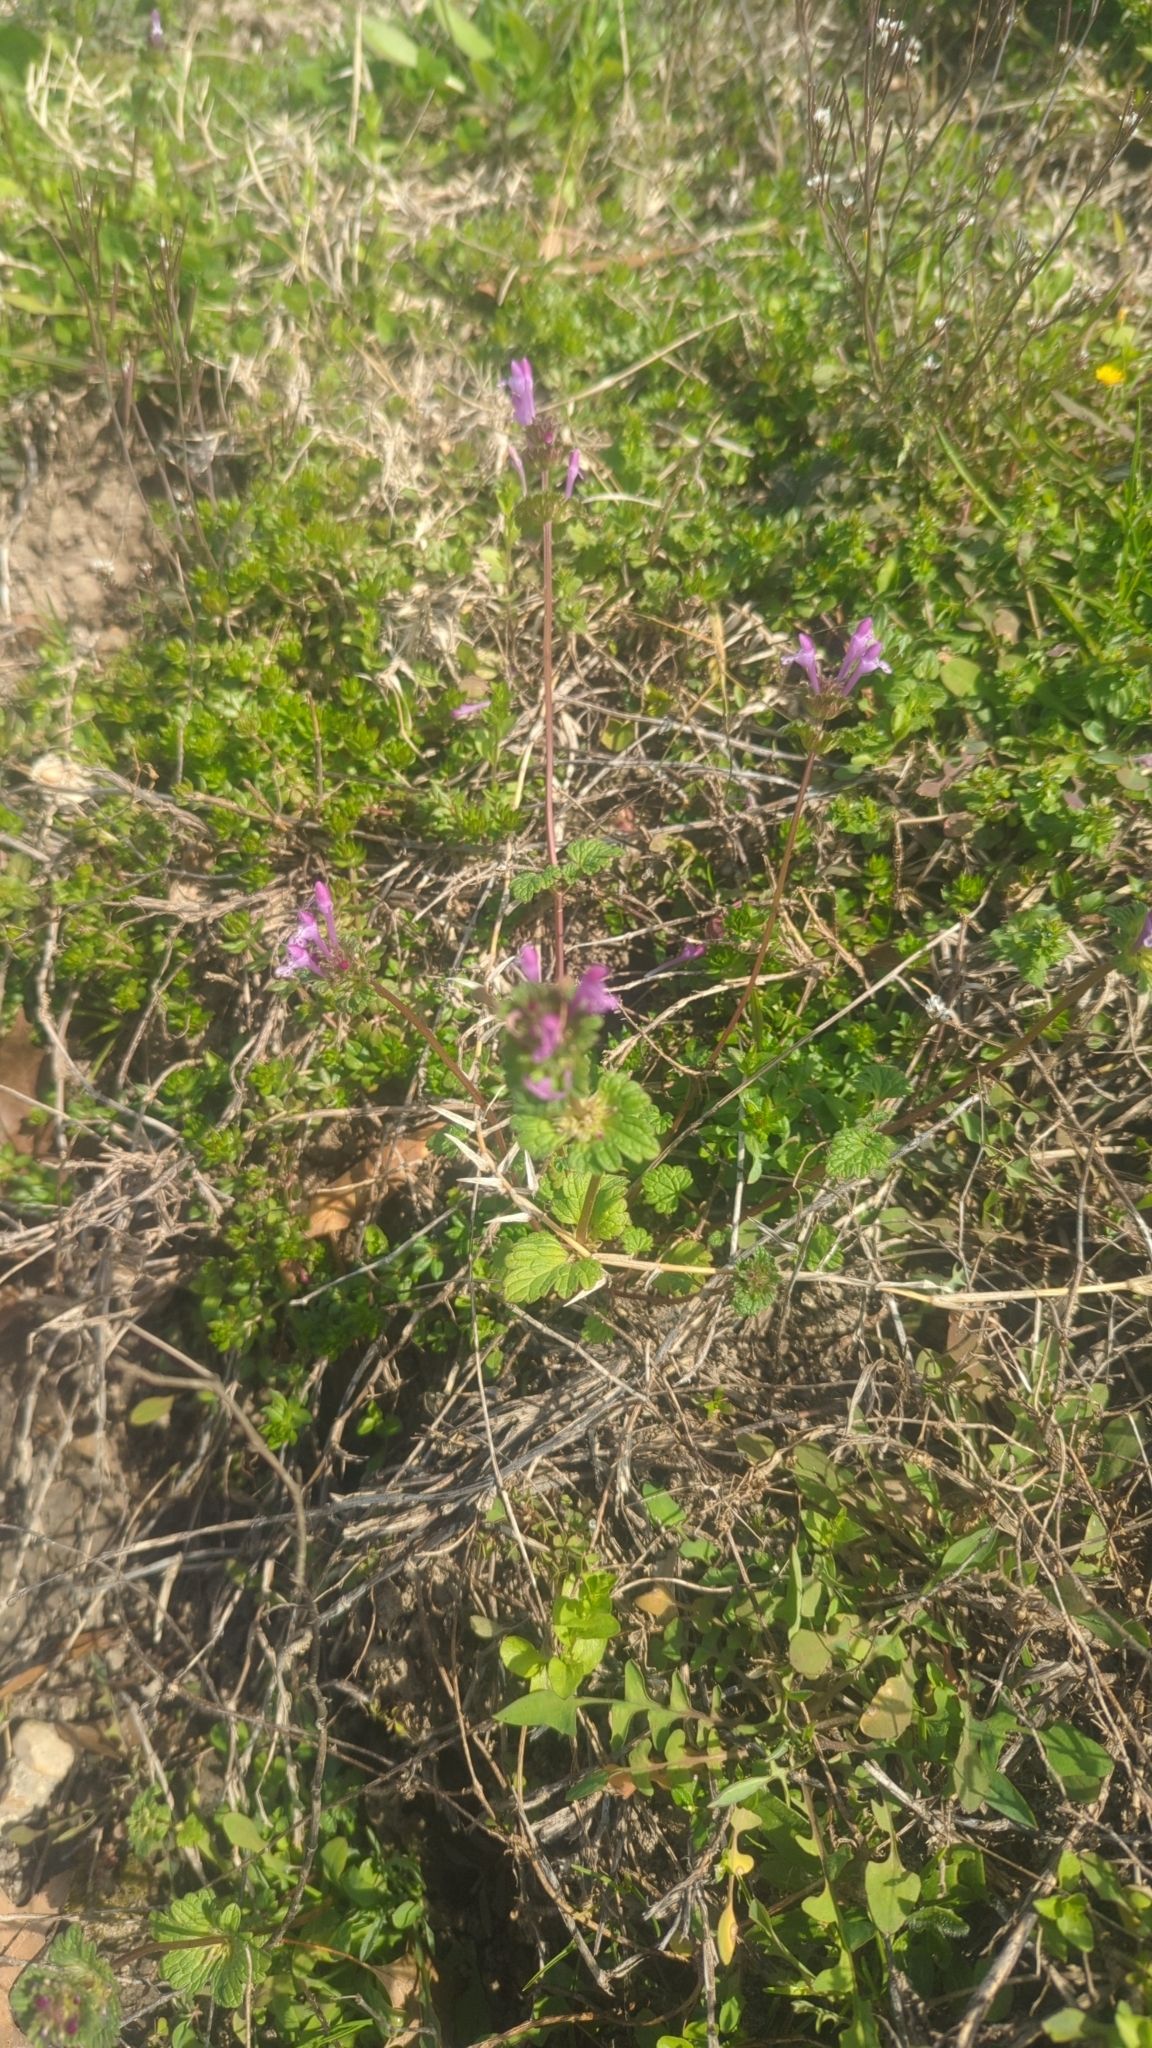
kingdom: Plantae
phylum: Tracheophyta
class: Magnoliopsida
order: Lamiales
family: Lamiaceae
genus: Lamium
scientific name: Lamium amplexicaule
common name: Henbit dead-nettle
